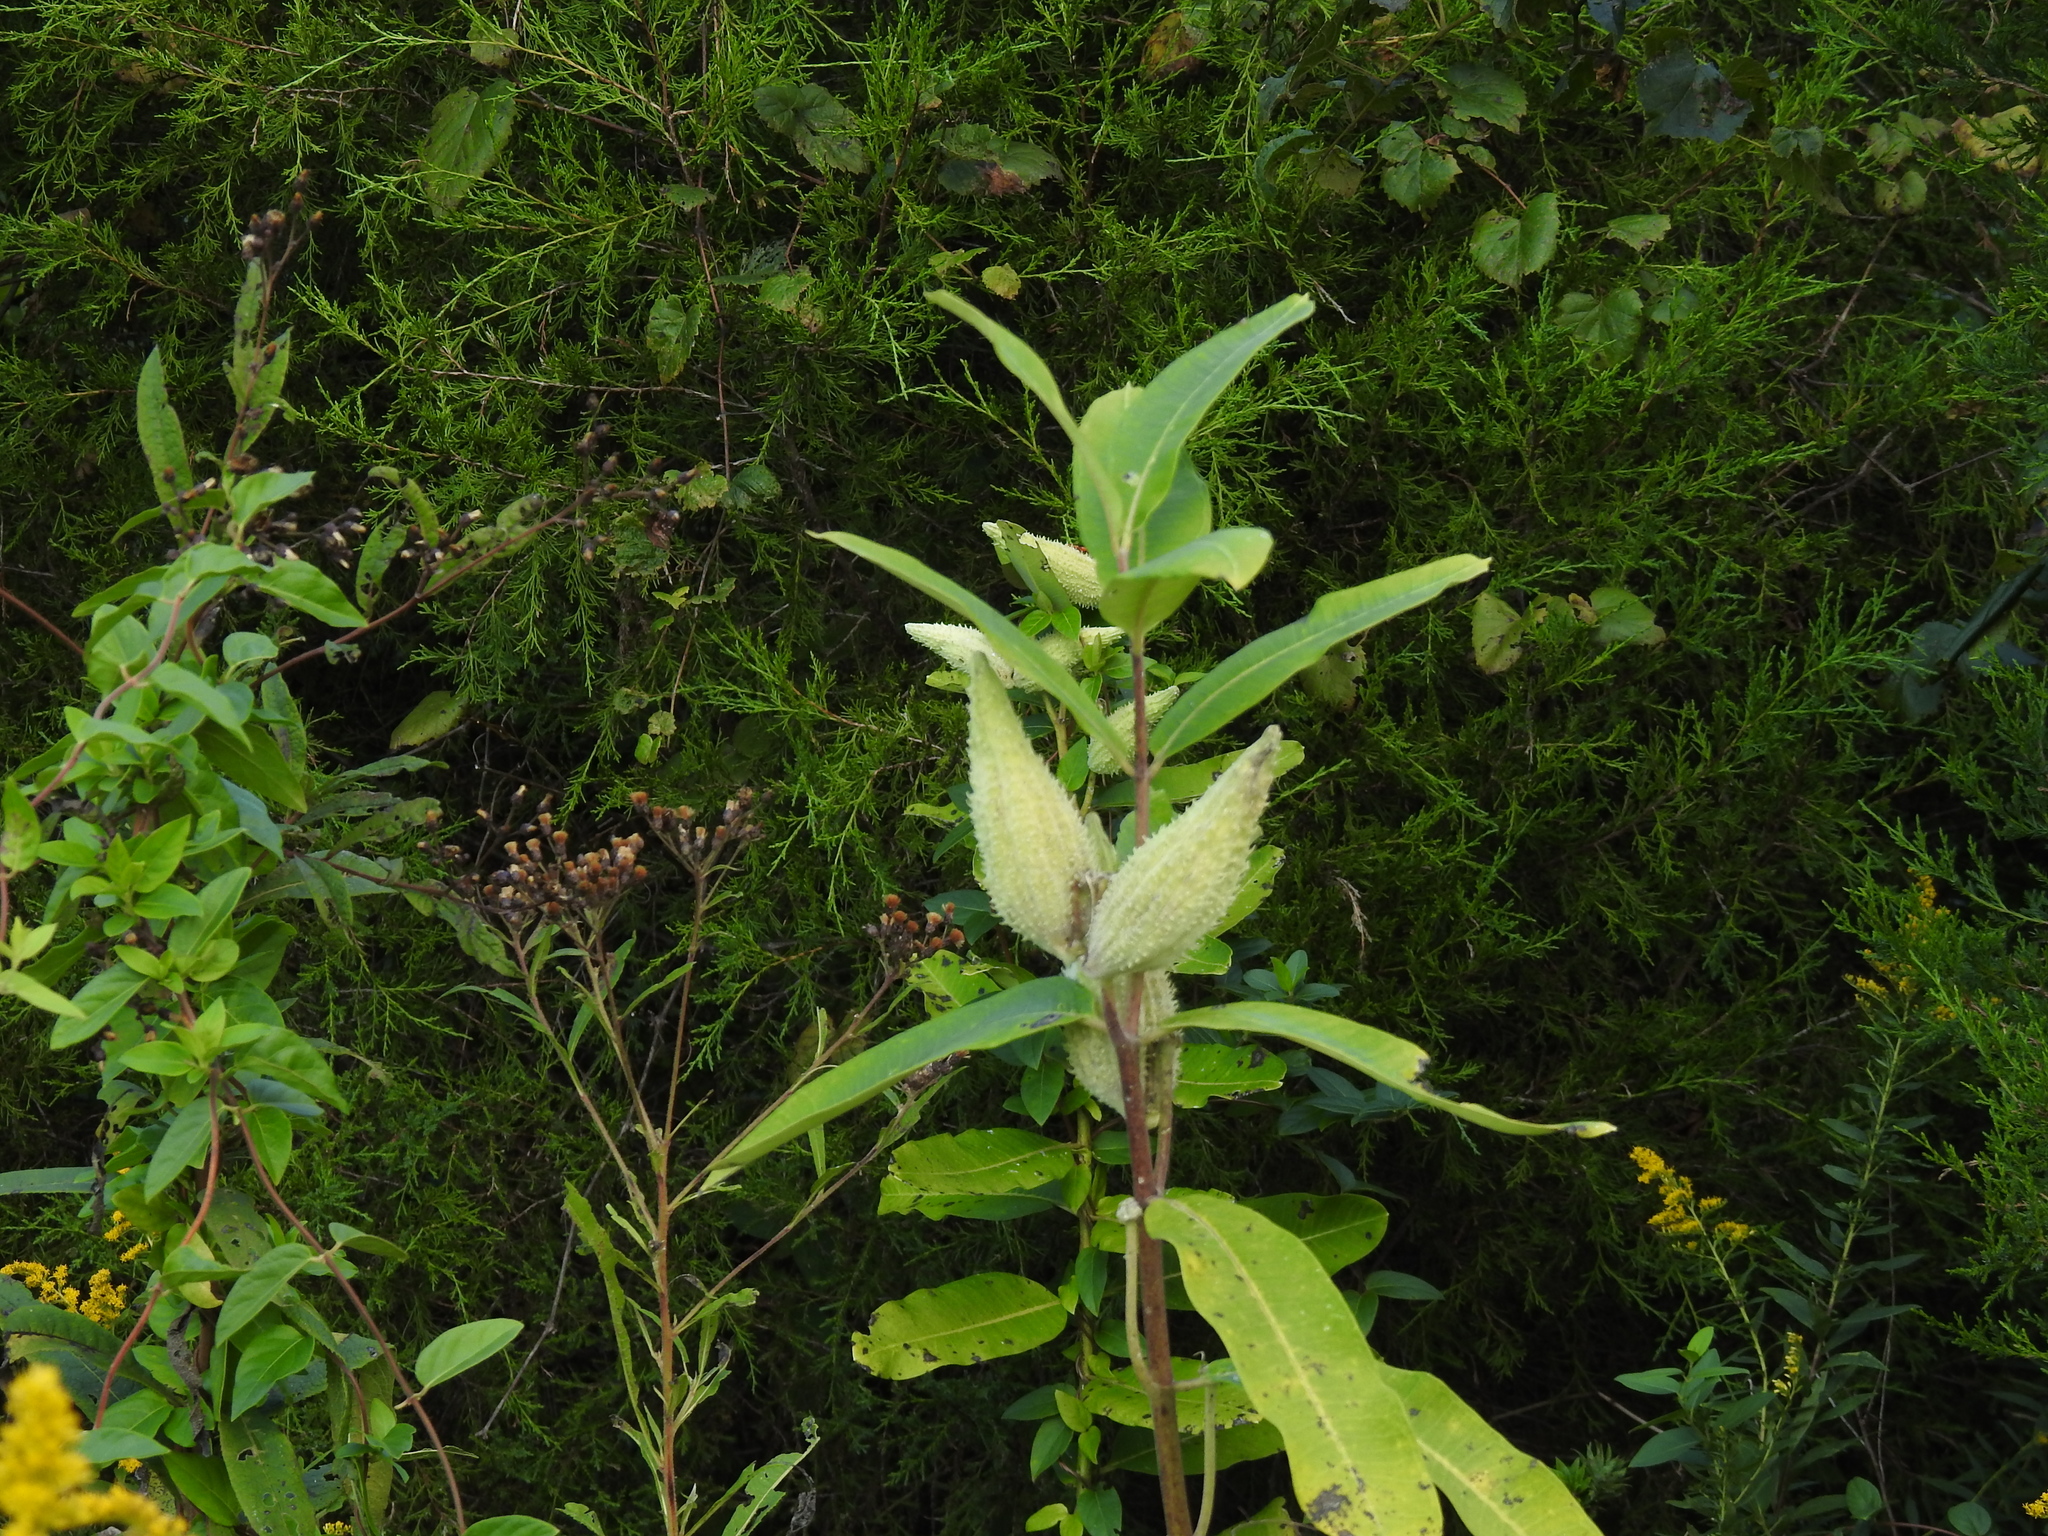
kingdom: Plantae
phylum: Tracheophyta
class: Magnoliopsida
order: Gentianales
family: Apocynaceae
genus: Asclepias
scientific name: Asclepias syriaca
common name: Common milkweed
